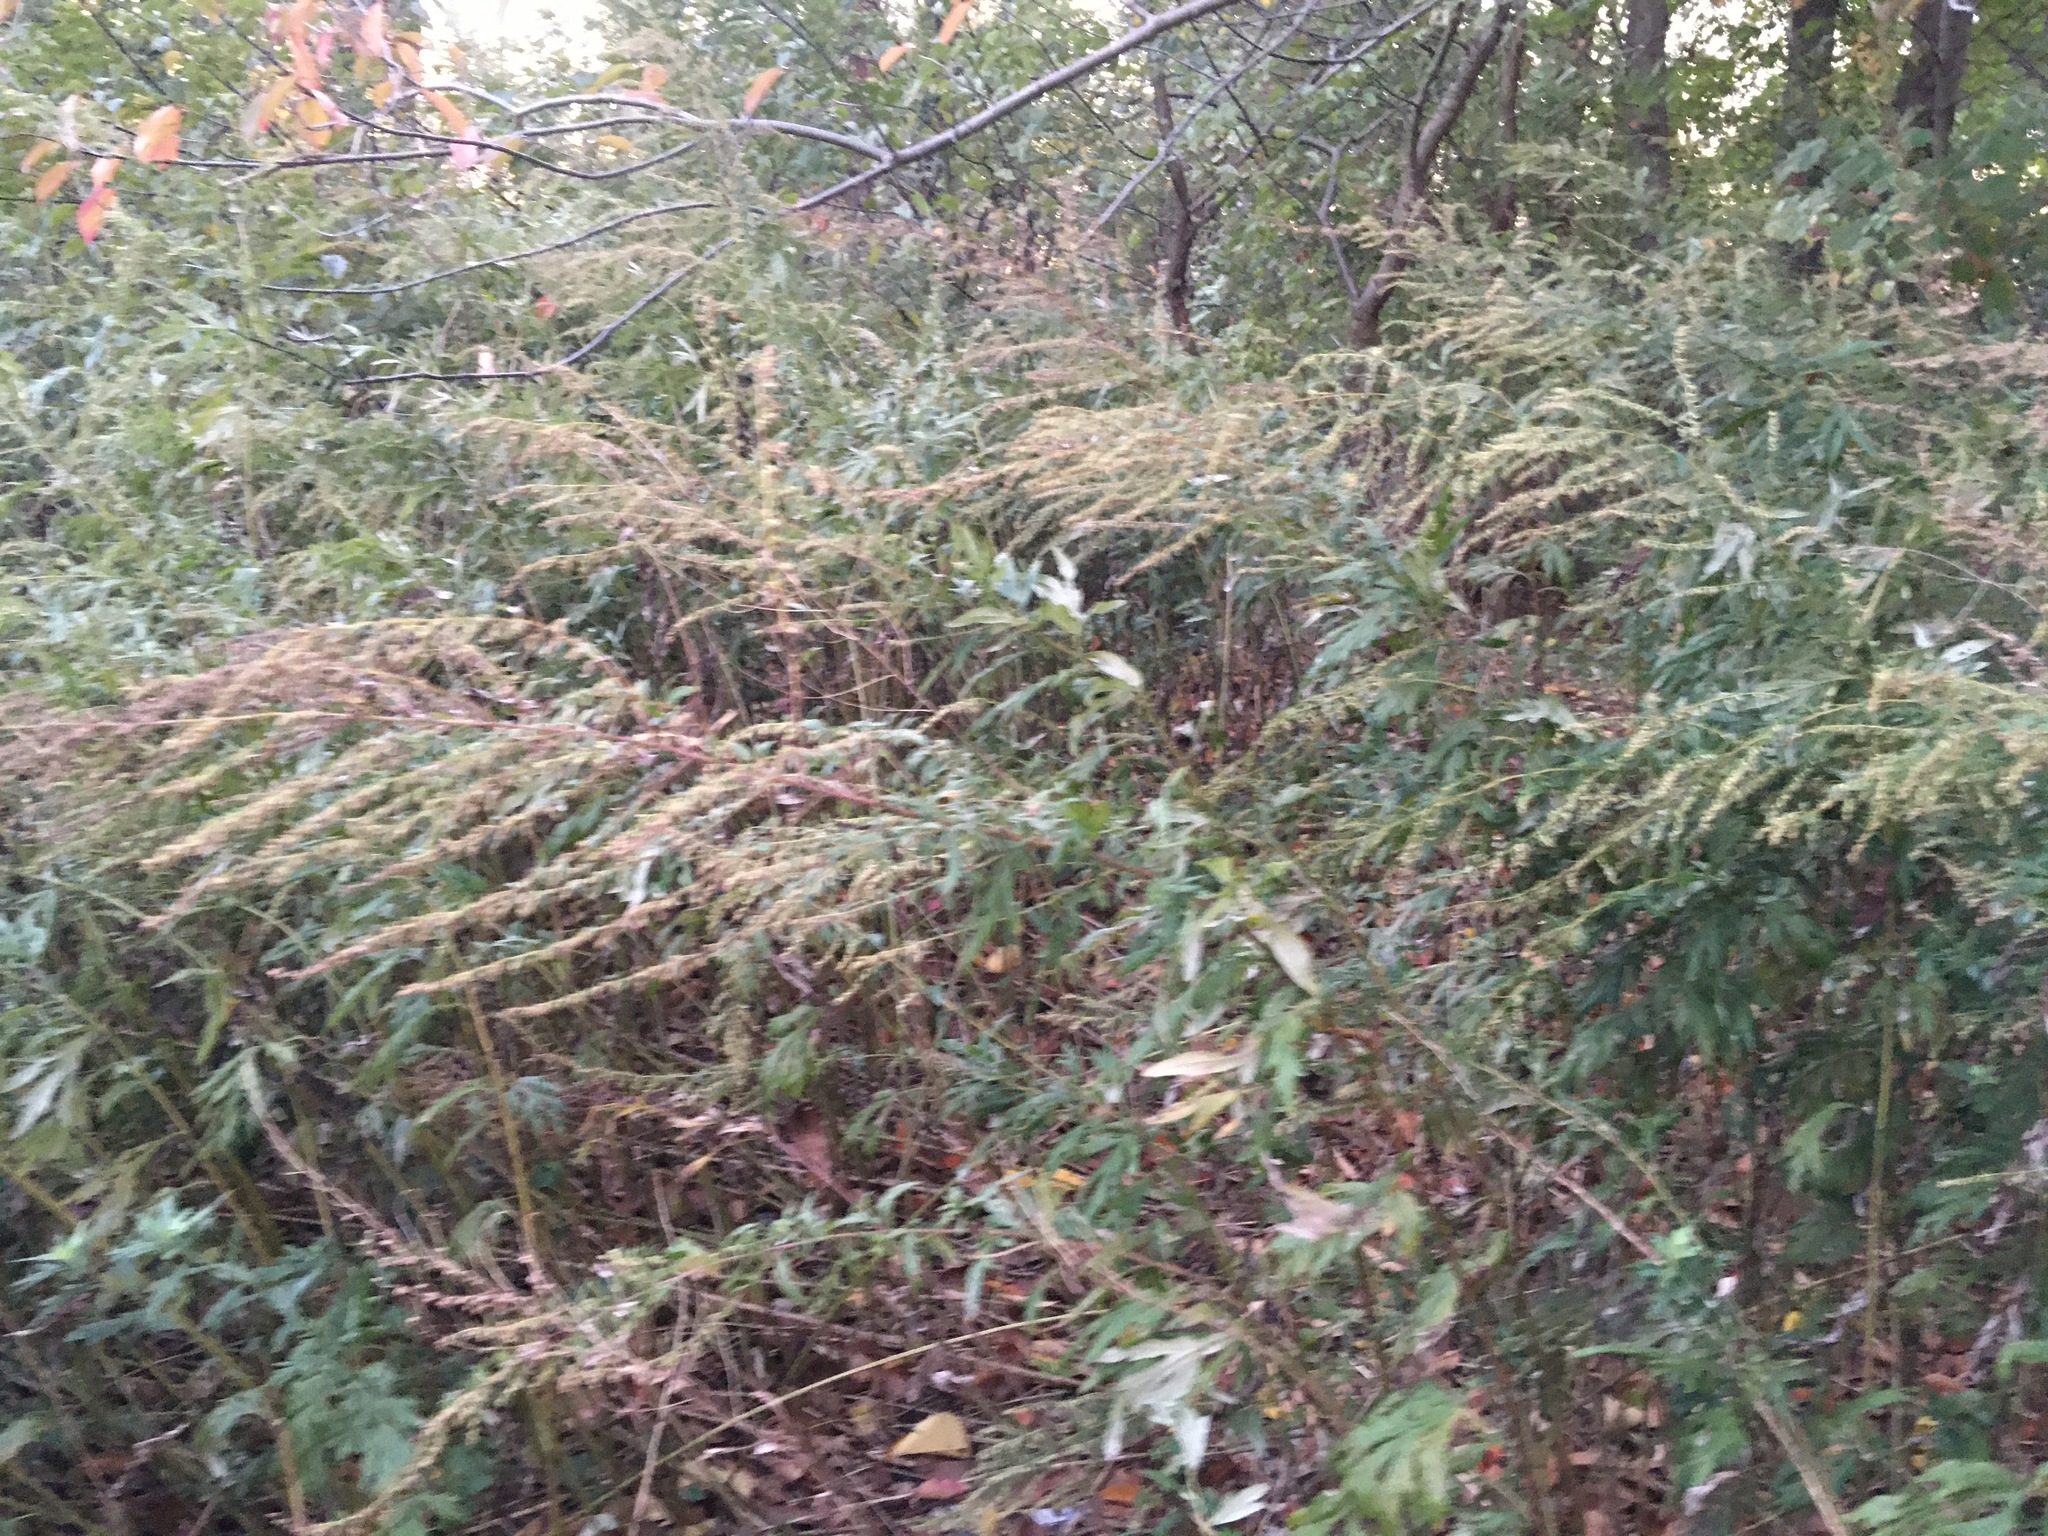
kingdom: Plantae
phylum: Tracheophyta
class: Magnoliopsida
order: Asterales
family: Asteraceae
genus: Artemisia
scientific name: Artemisia vulgaris
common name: Mugwort
